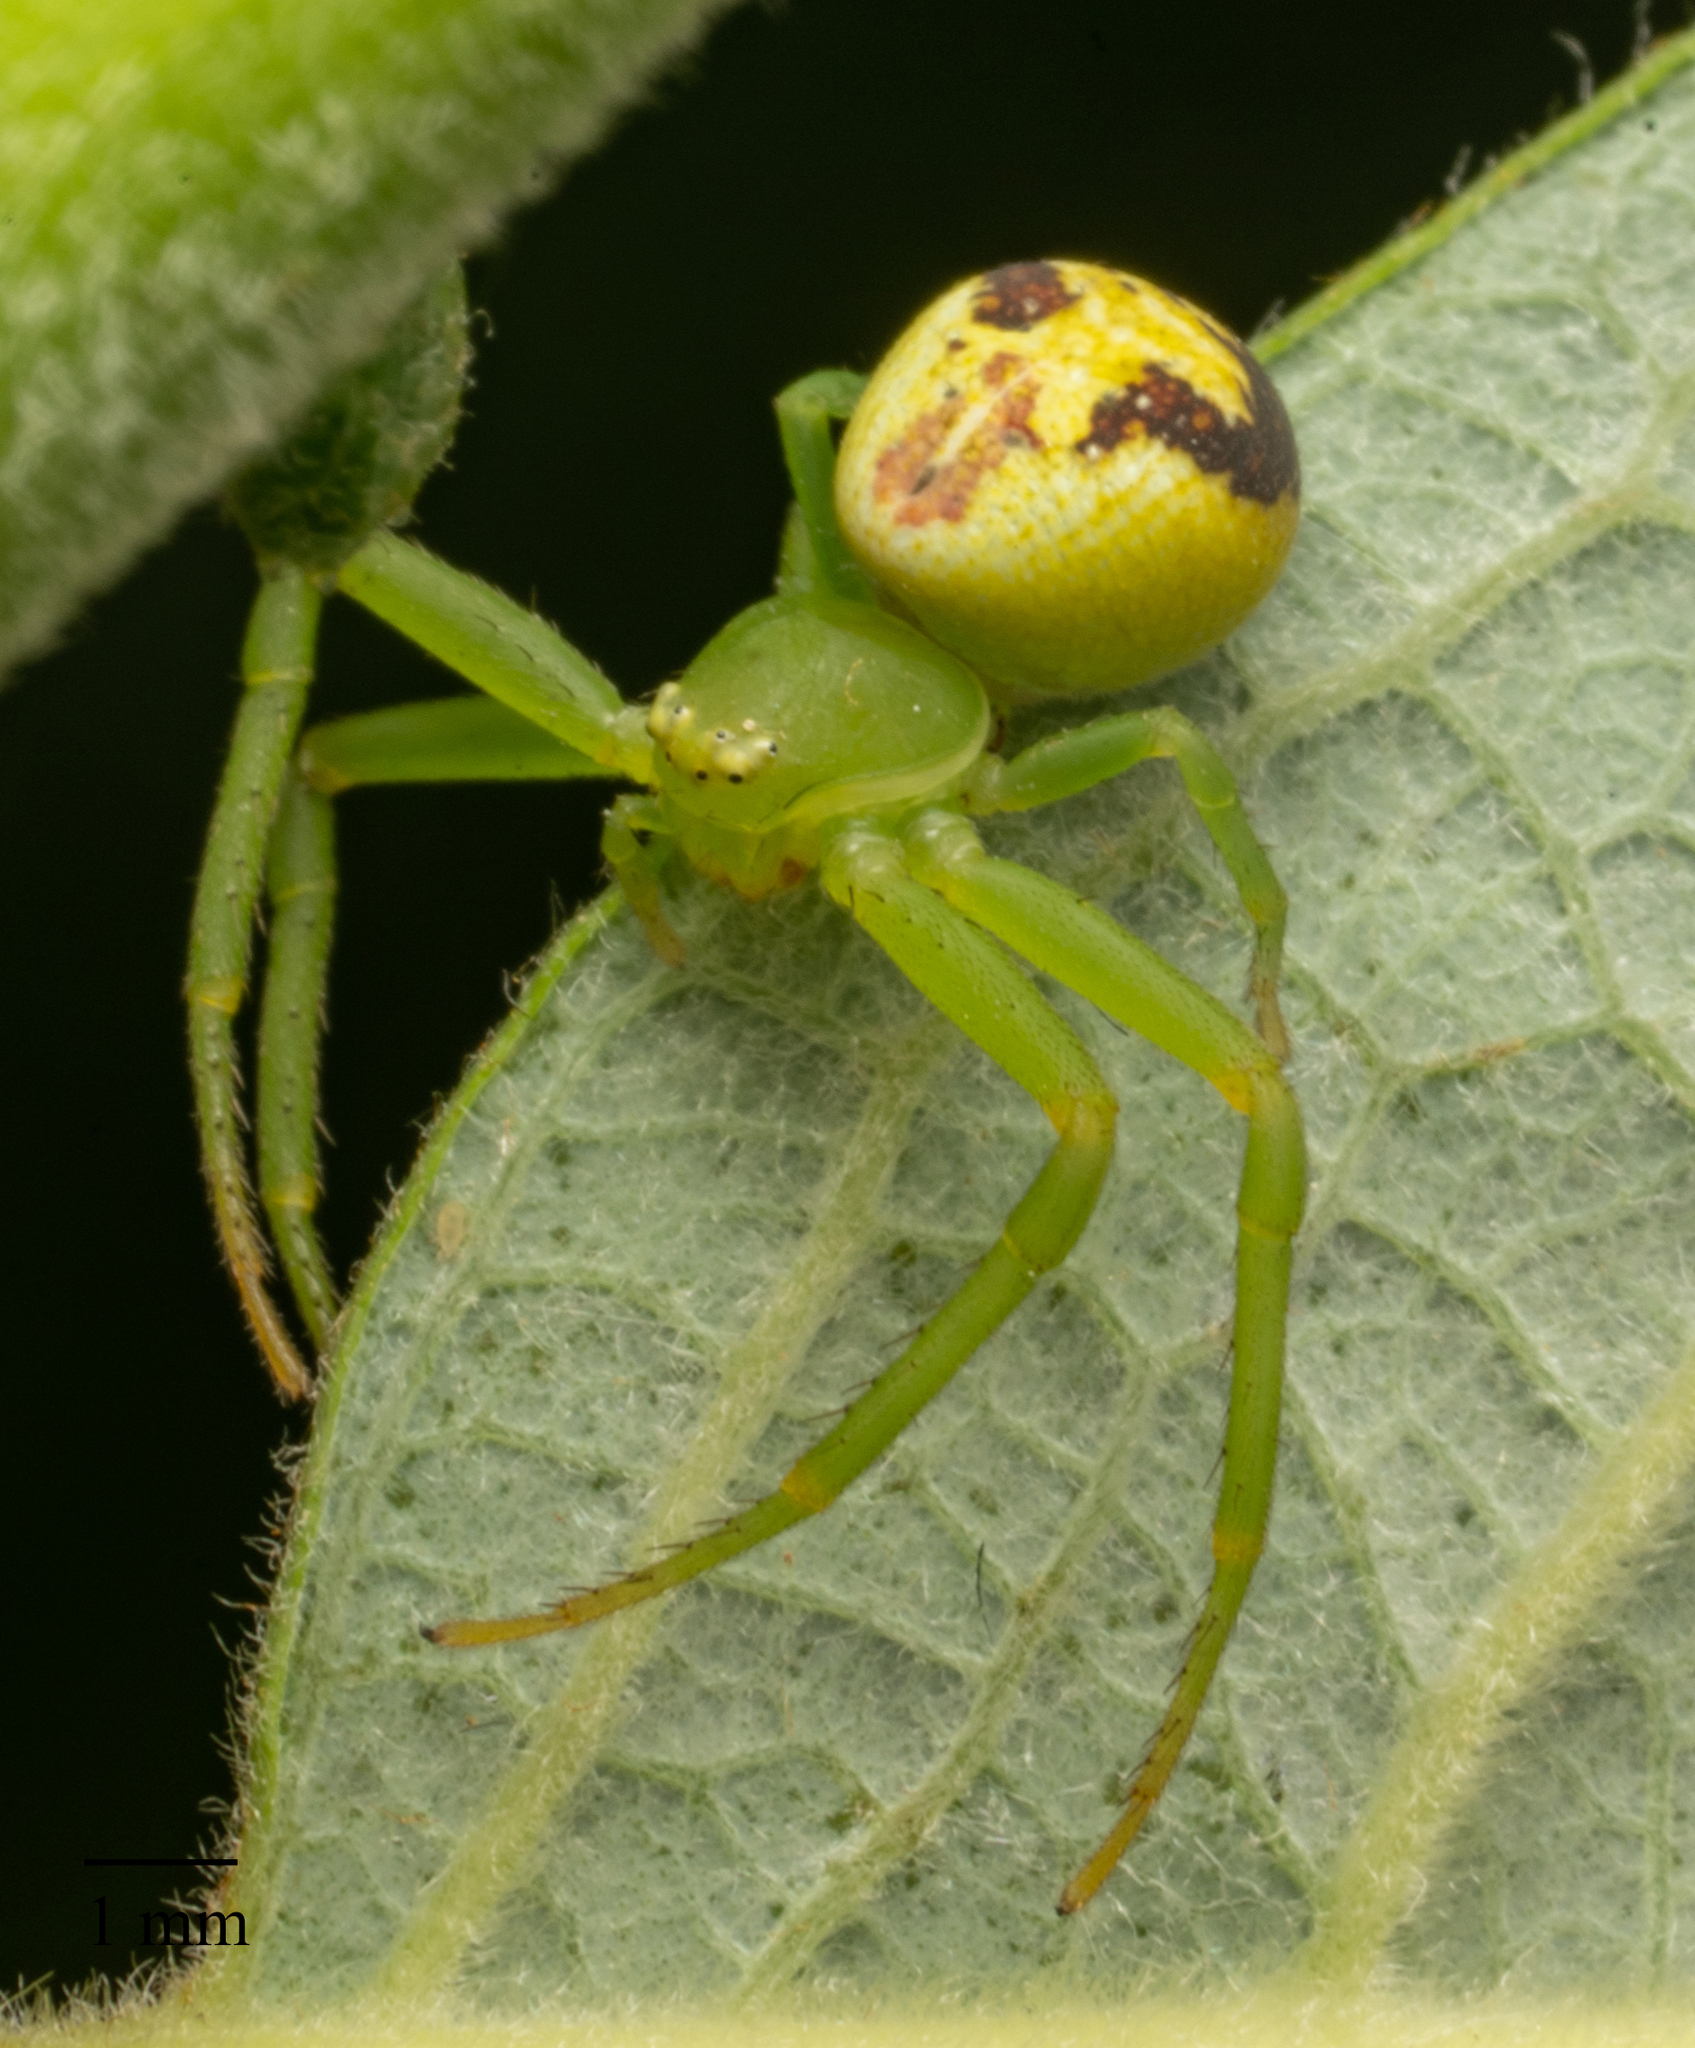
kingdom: Animalia
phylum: Arthropoda
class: Arachnida
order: Araneae
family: Thomisidae
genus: Ebrechtella
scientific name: Ebrechtella tricuspidata
